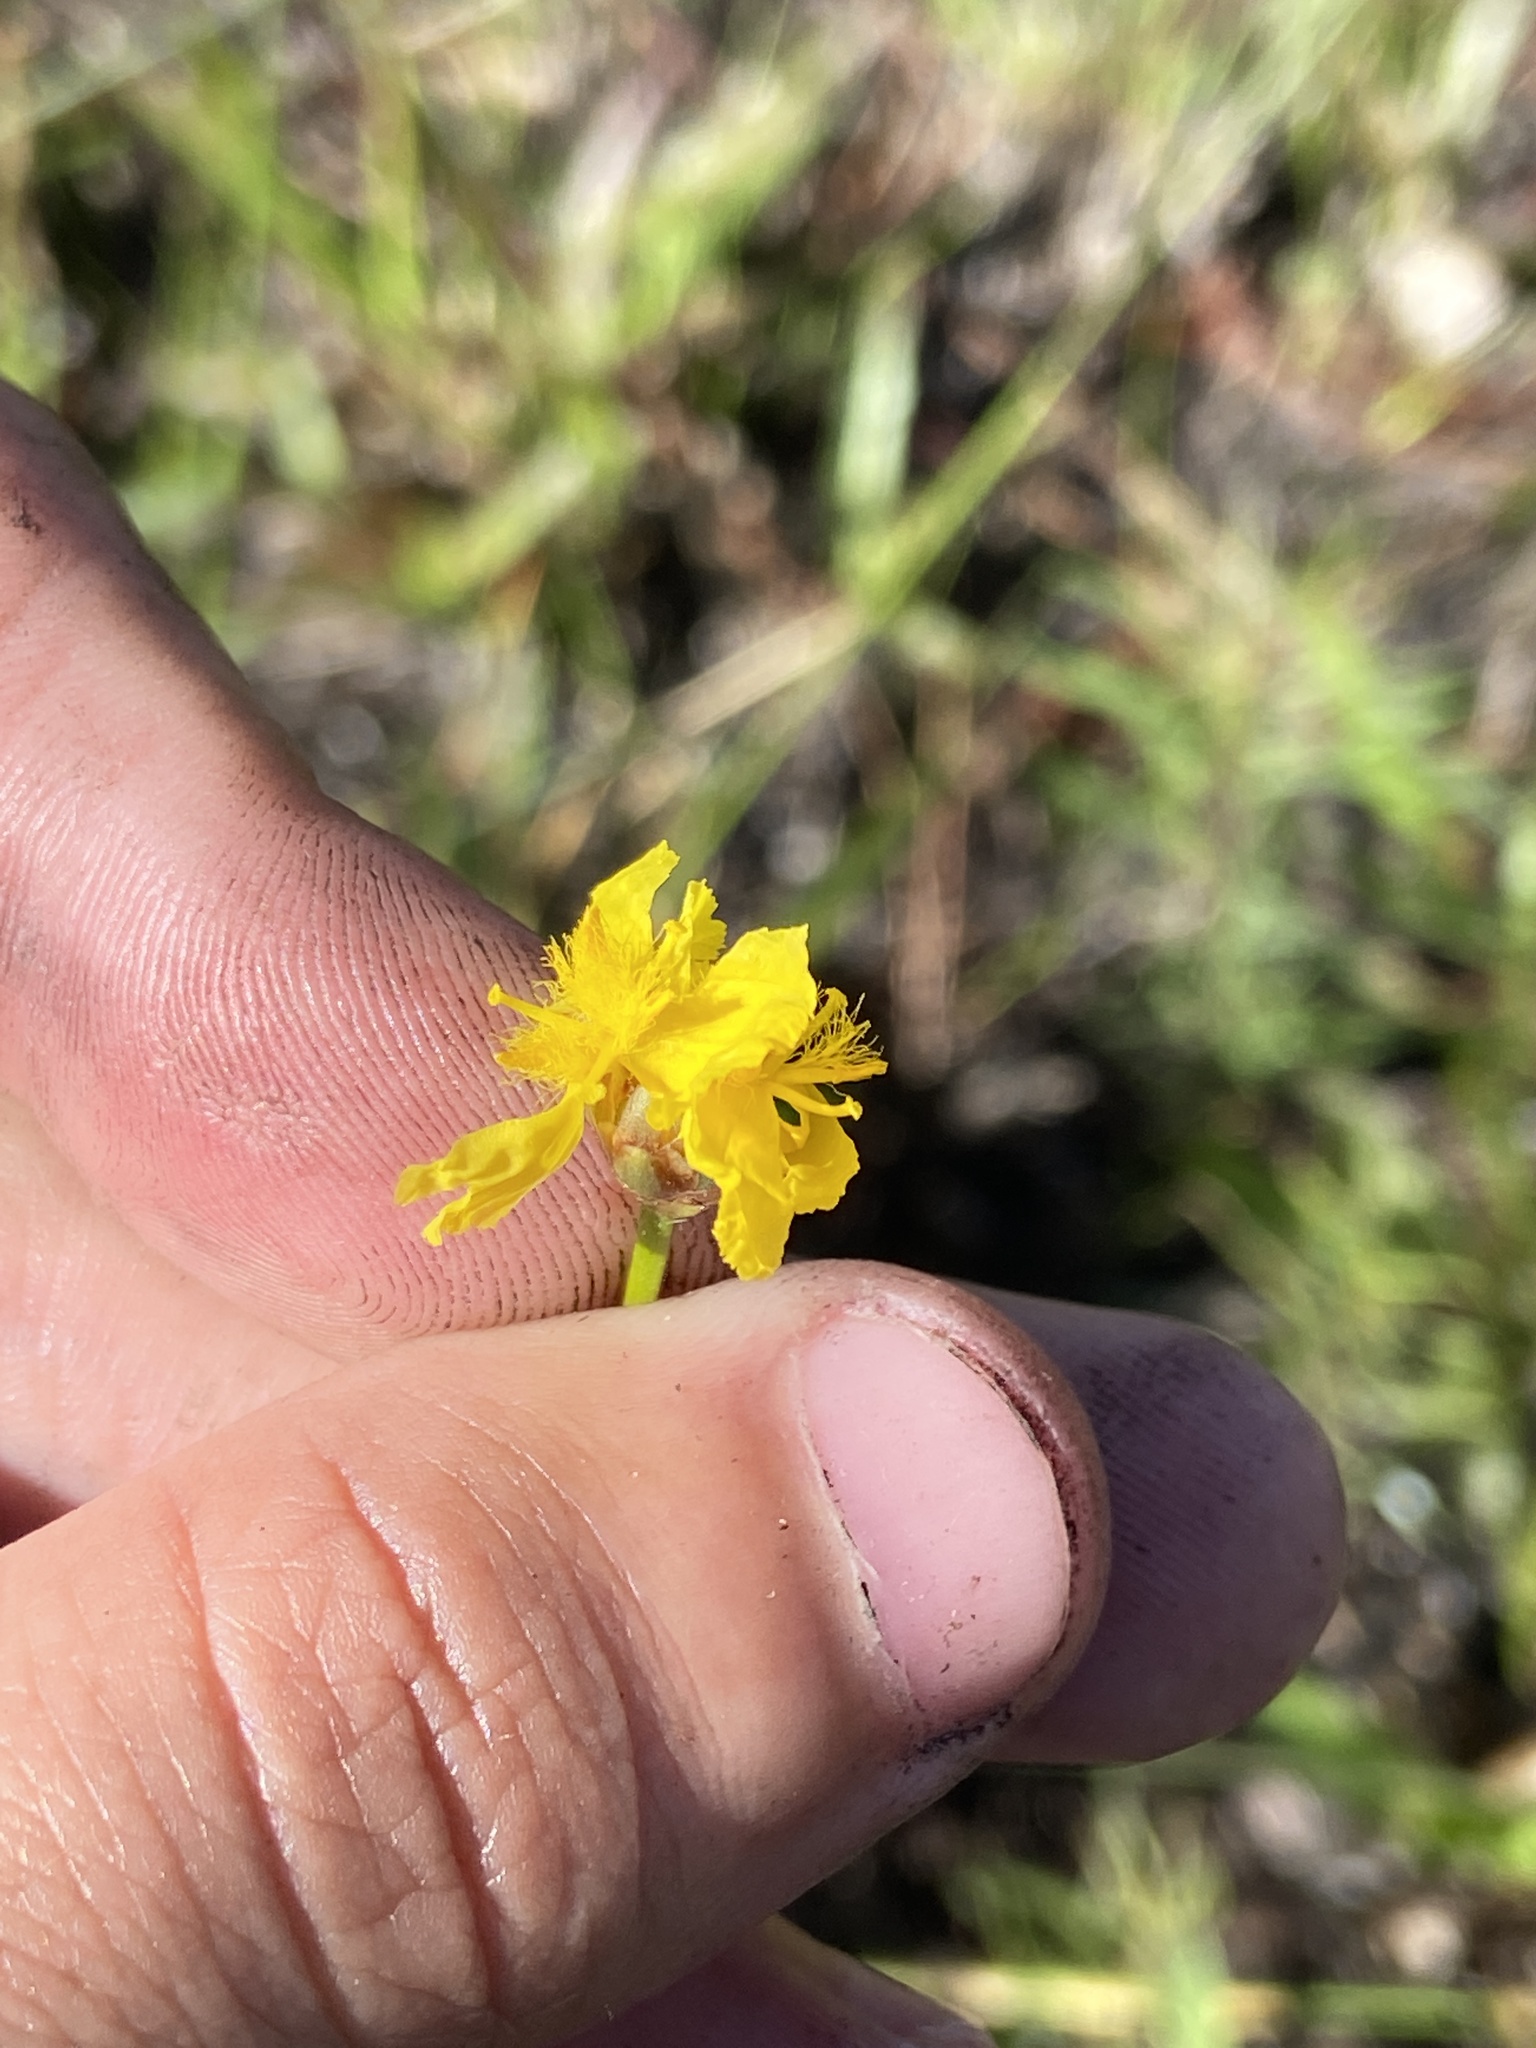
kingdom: Plantae
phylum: Tracheophyta
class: Liliopsida
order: Poales
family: Xyridaceae
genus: Xyris
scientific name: Xyris elliottii
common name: Elliot's yelloweyed grass
